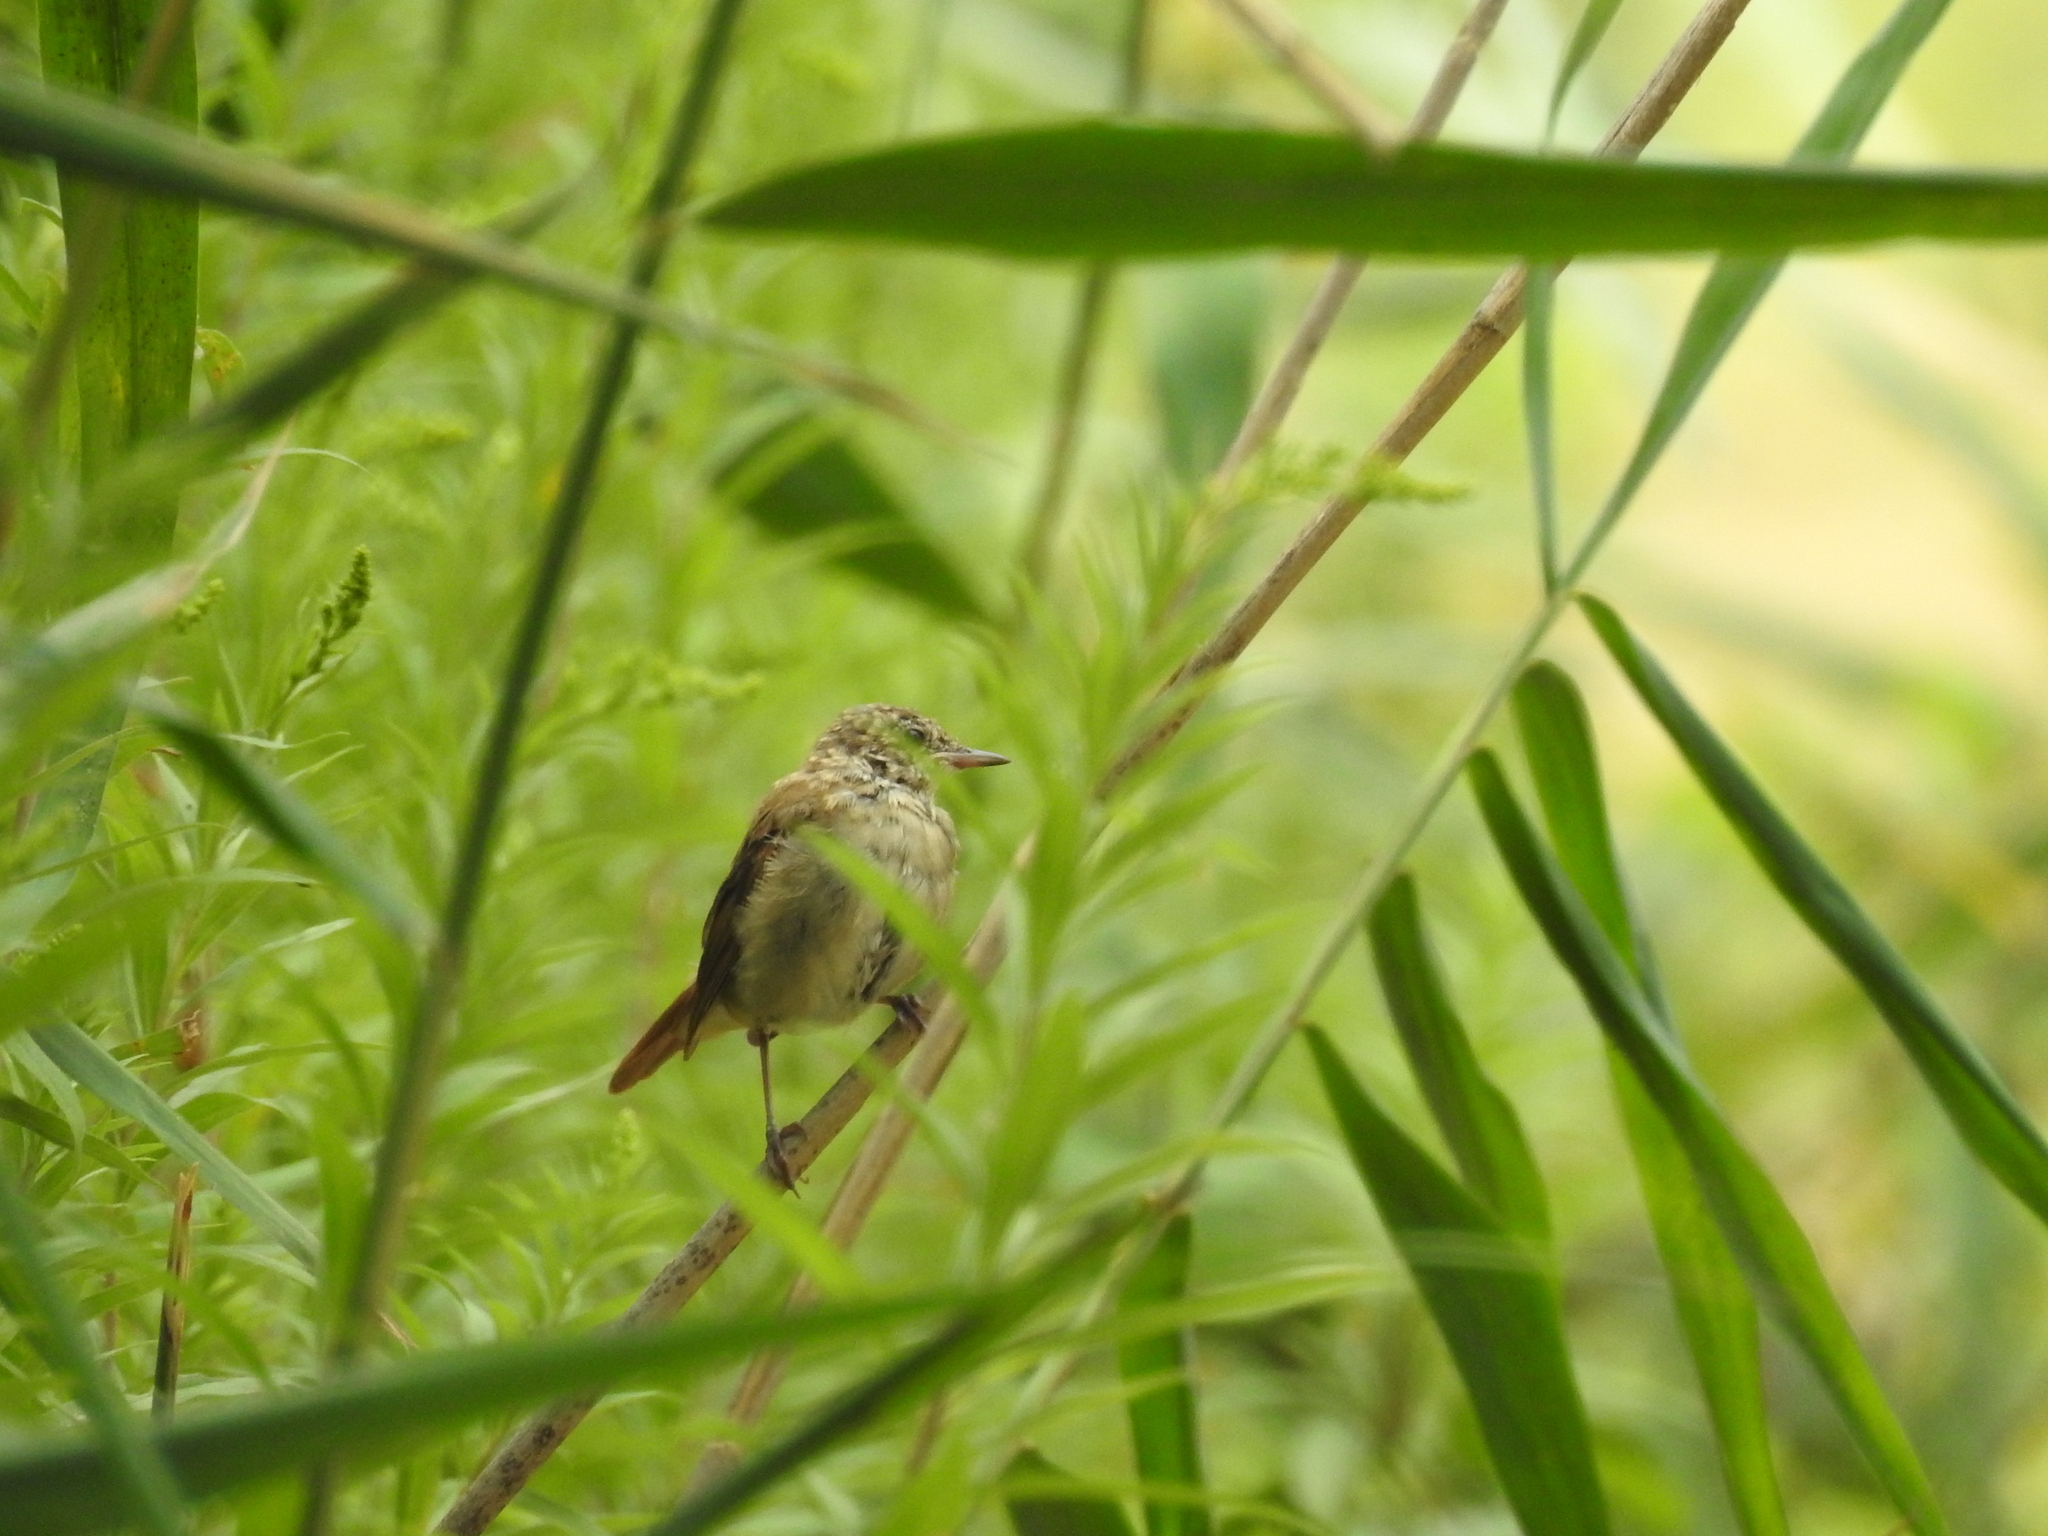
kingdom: Animalia
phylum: Chordata
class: Aves
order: Passeriformes
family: Muscicapidae
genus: Luscinia
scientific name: Luscinia megarhynchos
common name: Common nightingale
